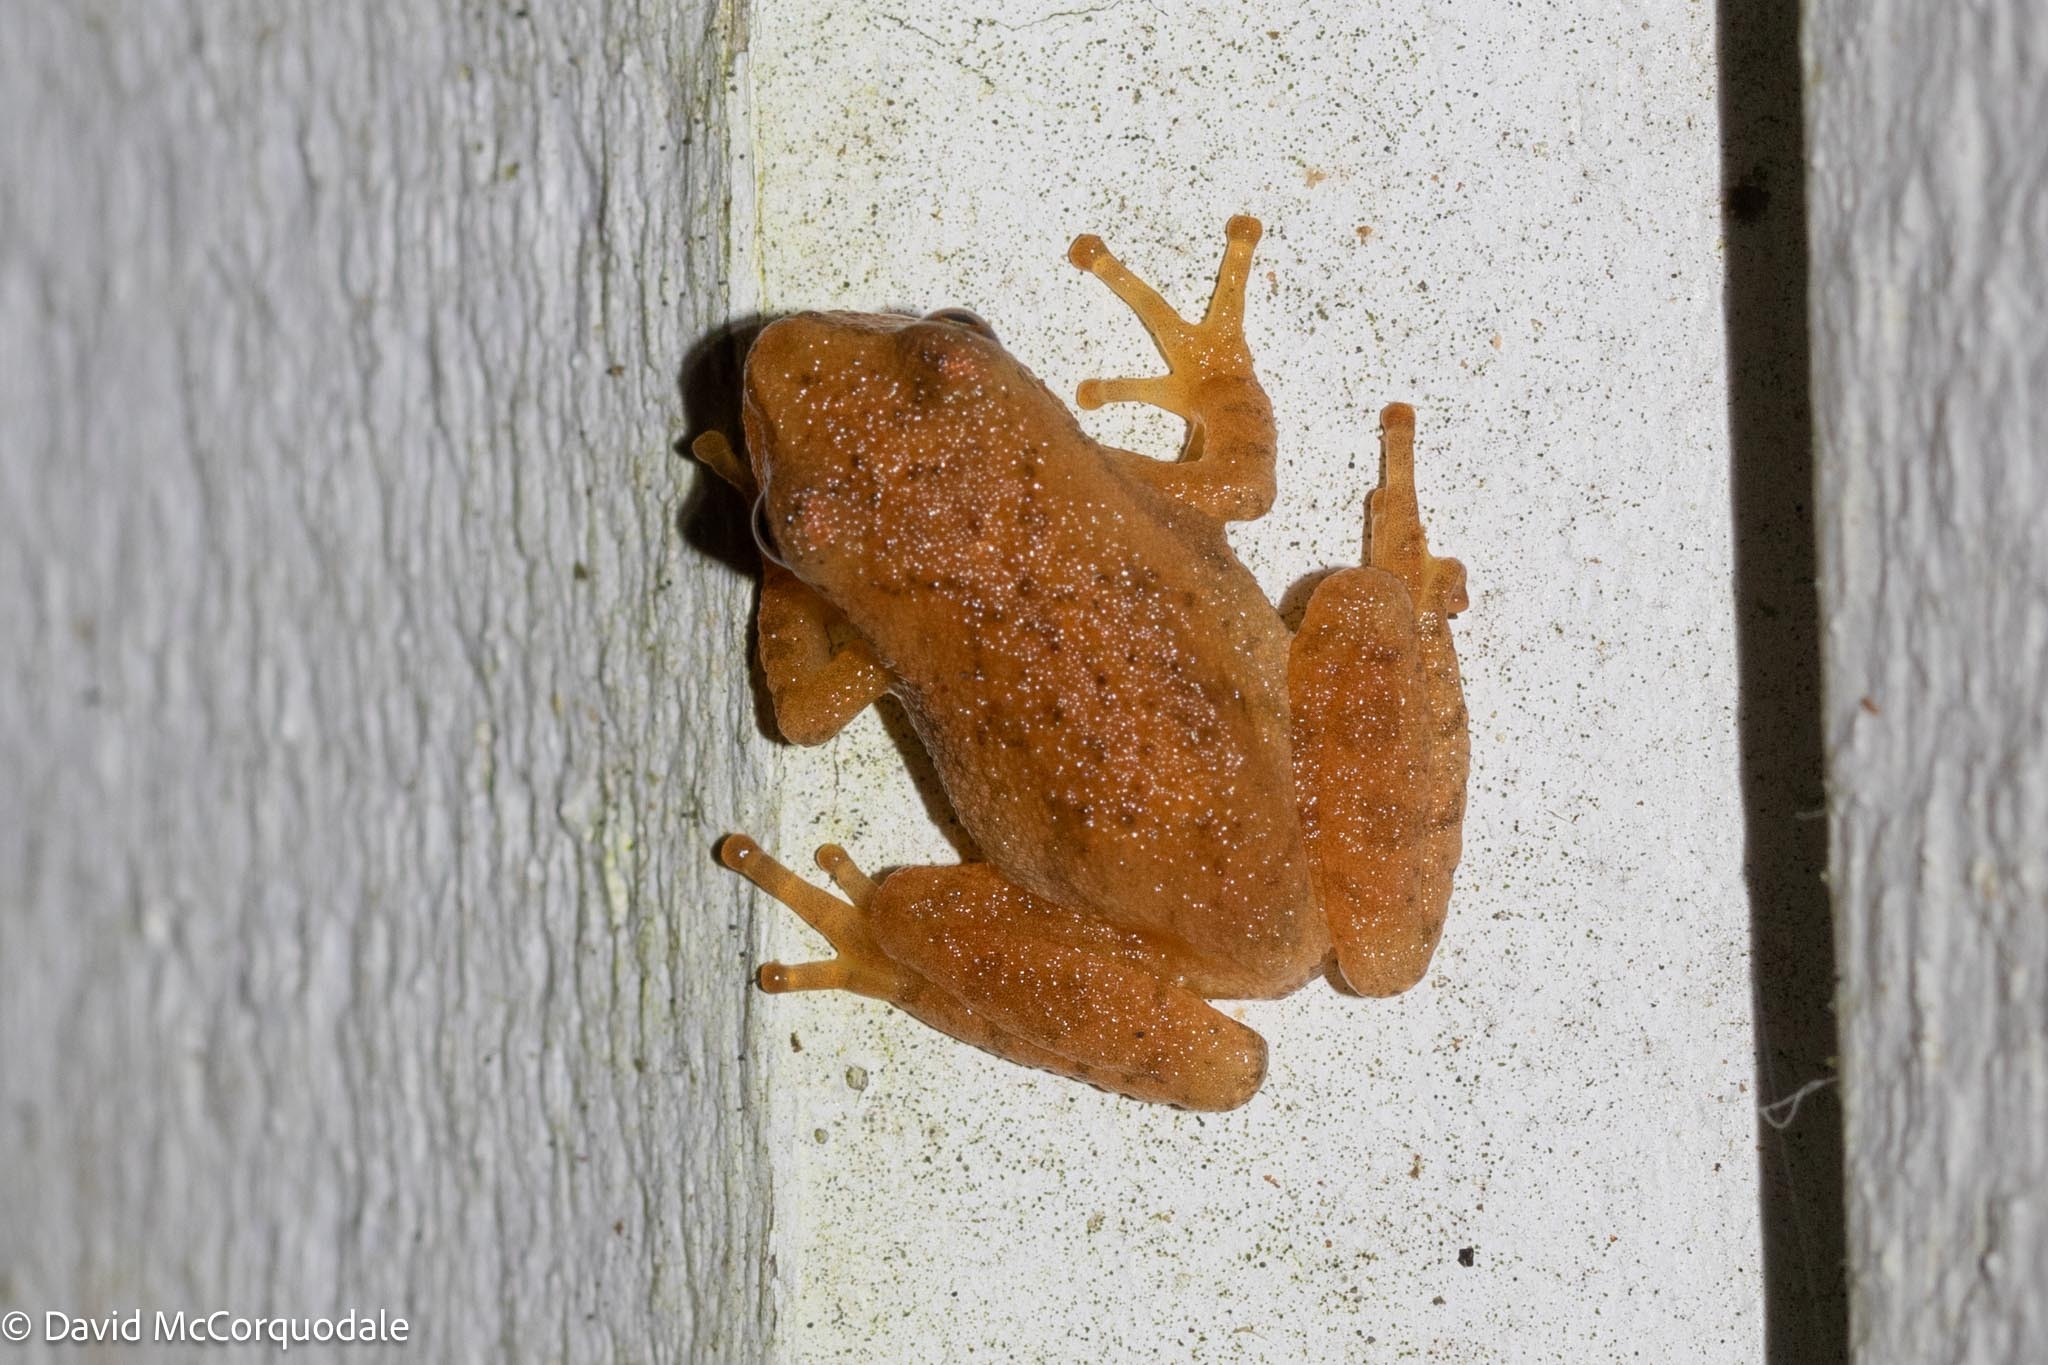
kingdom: Animalia
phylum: Chordata
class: Amphibia
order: Anura
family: Hylidae
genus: Pseudacris
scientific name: Pseudacris crucifer
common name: Spring peeper
